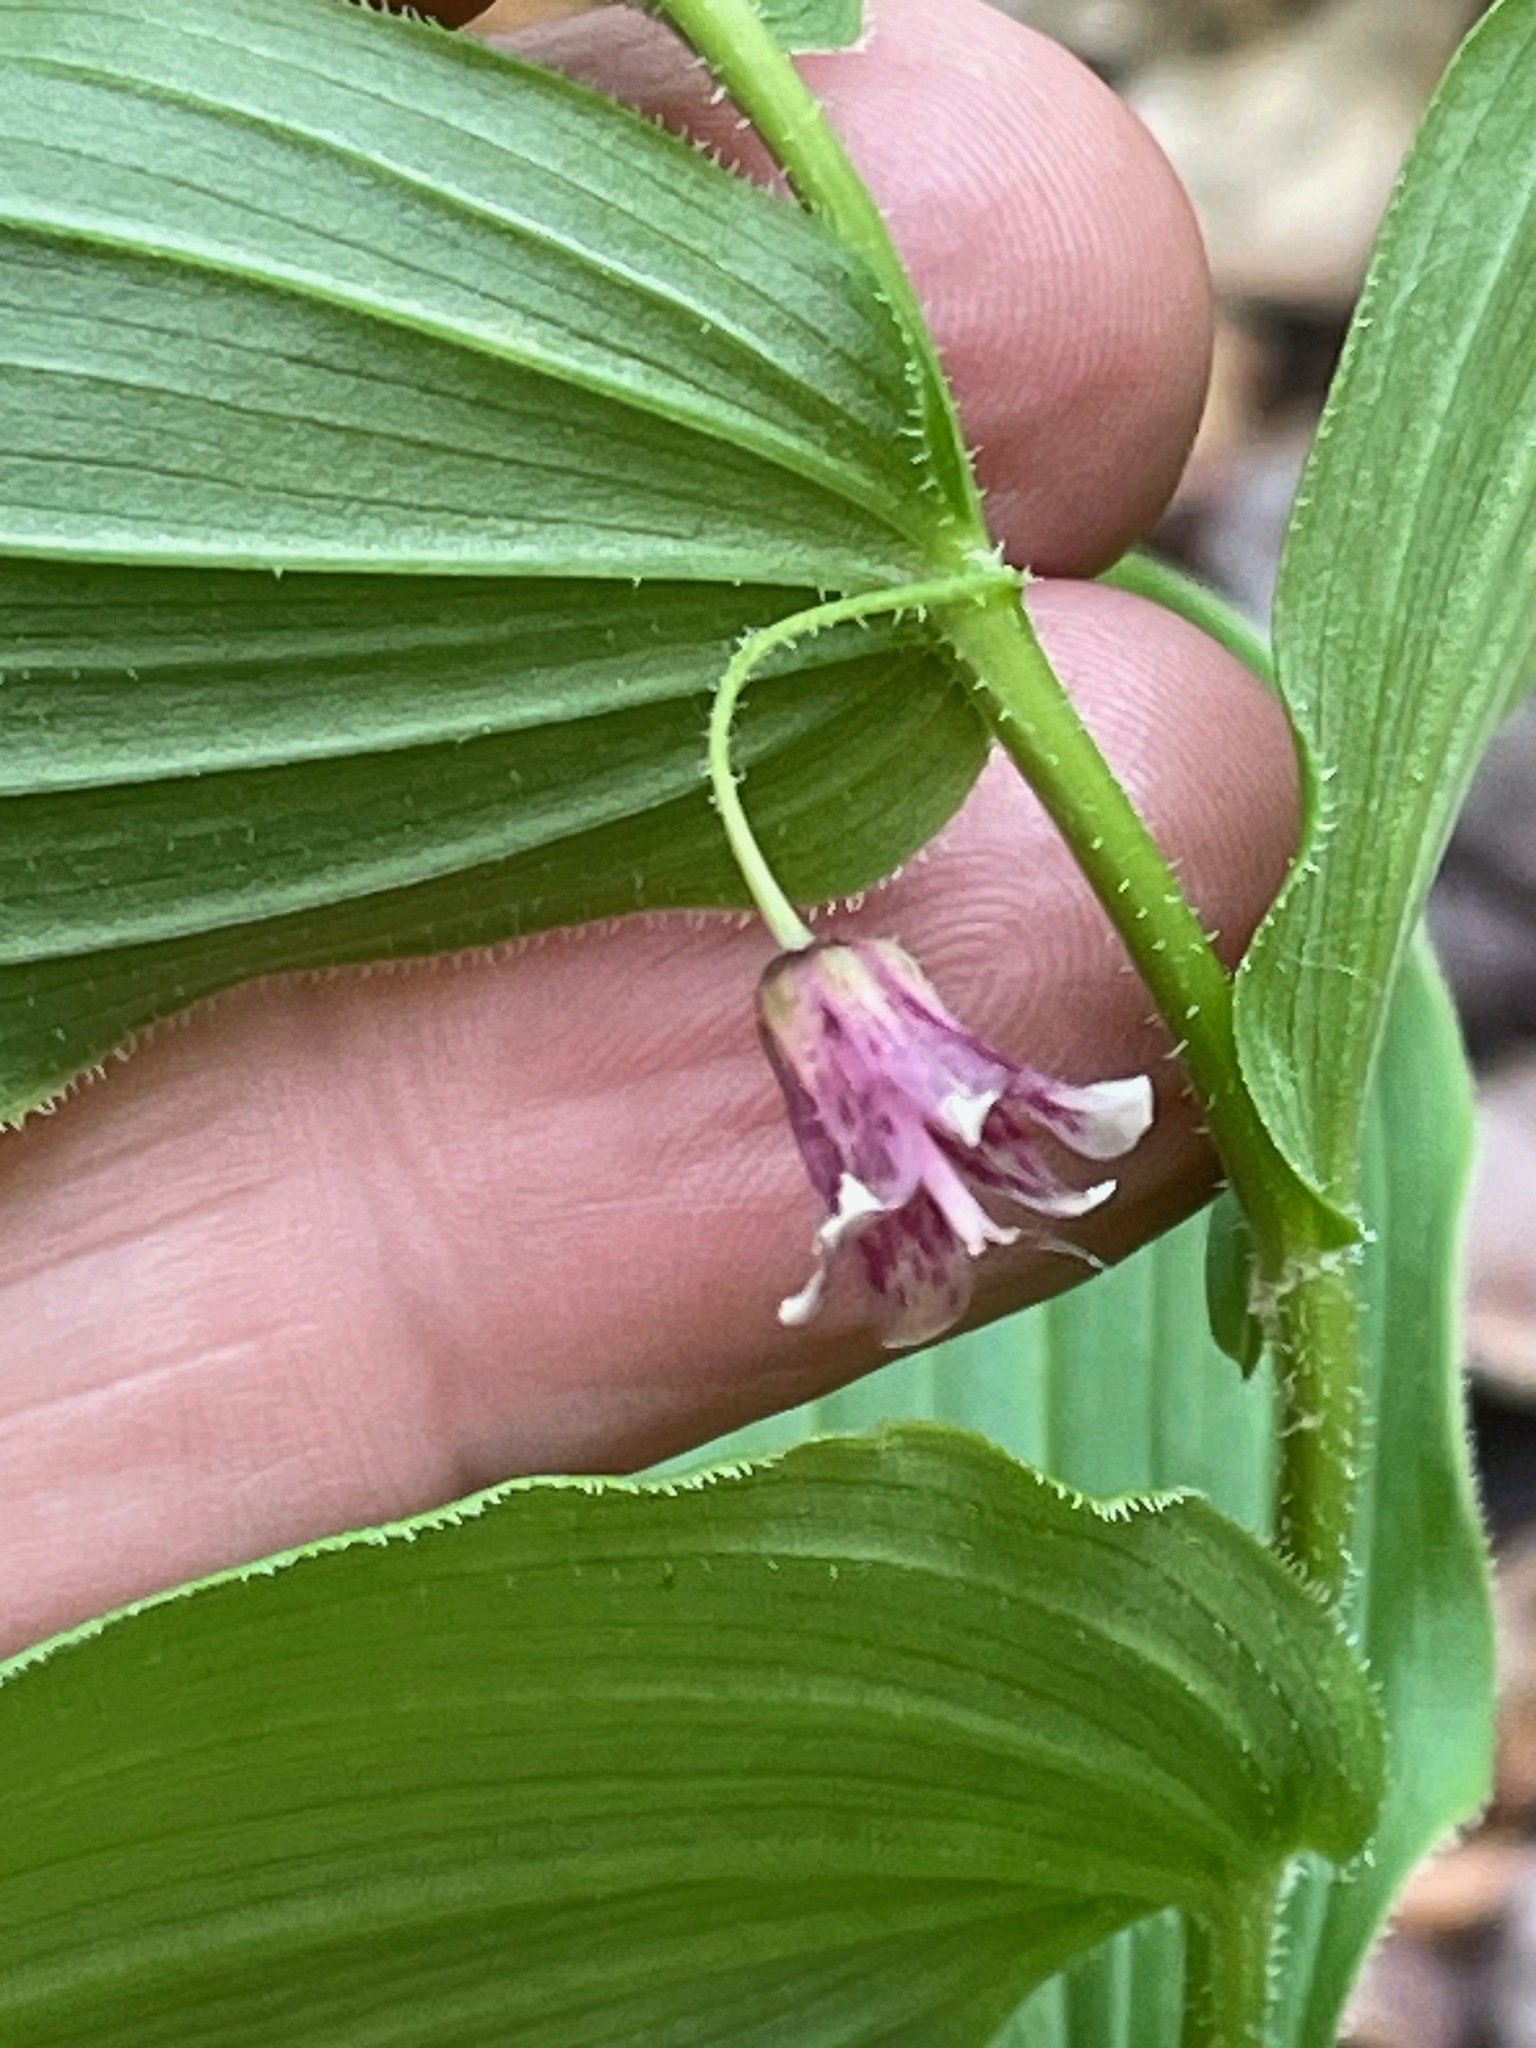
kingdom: Plantae
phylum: Tracheophyta
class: Liliopsida
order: Liliales
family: Liliaceae
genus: Streptopus
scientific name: Streptopus lanceolatus
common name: Rose mandarin
